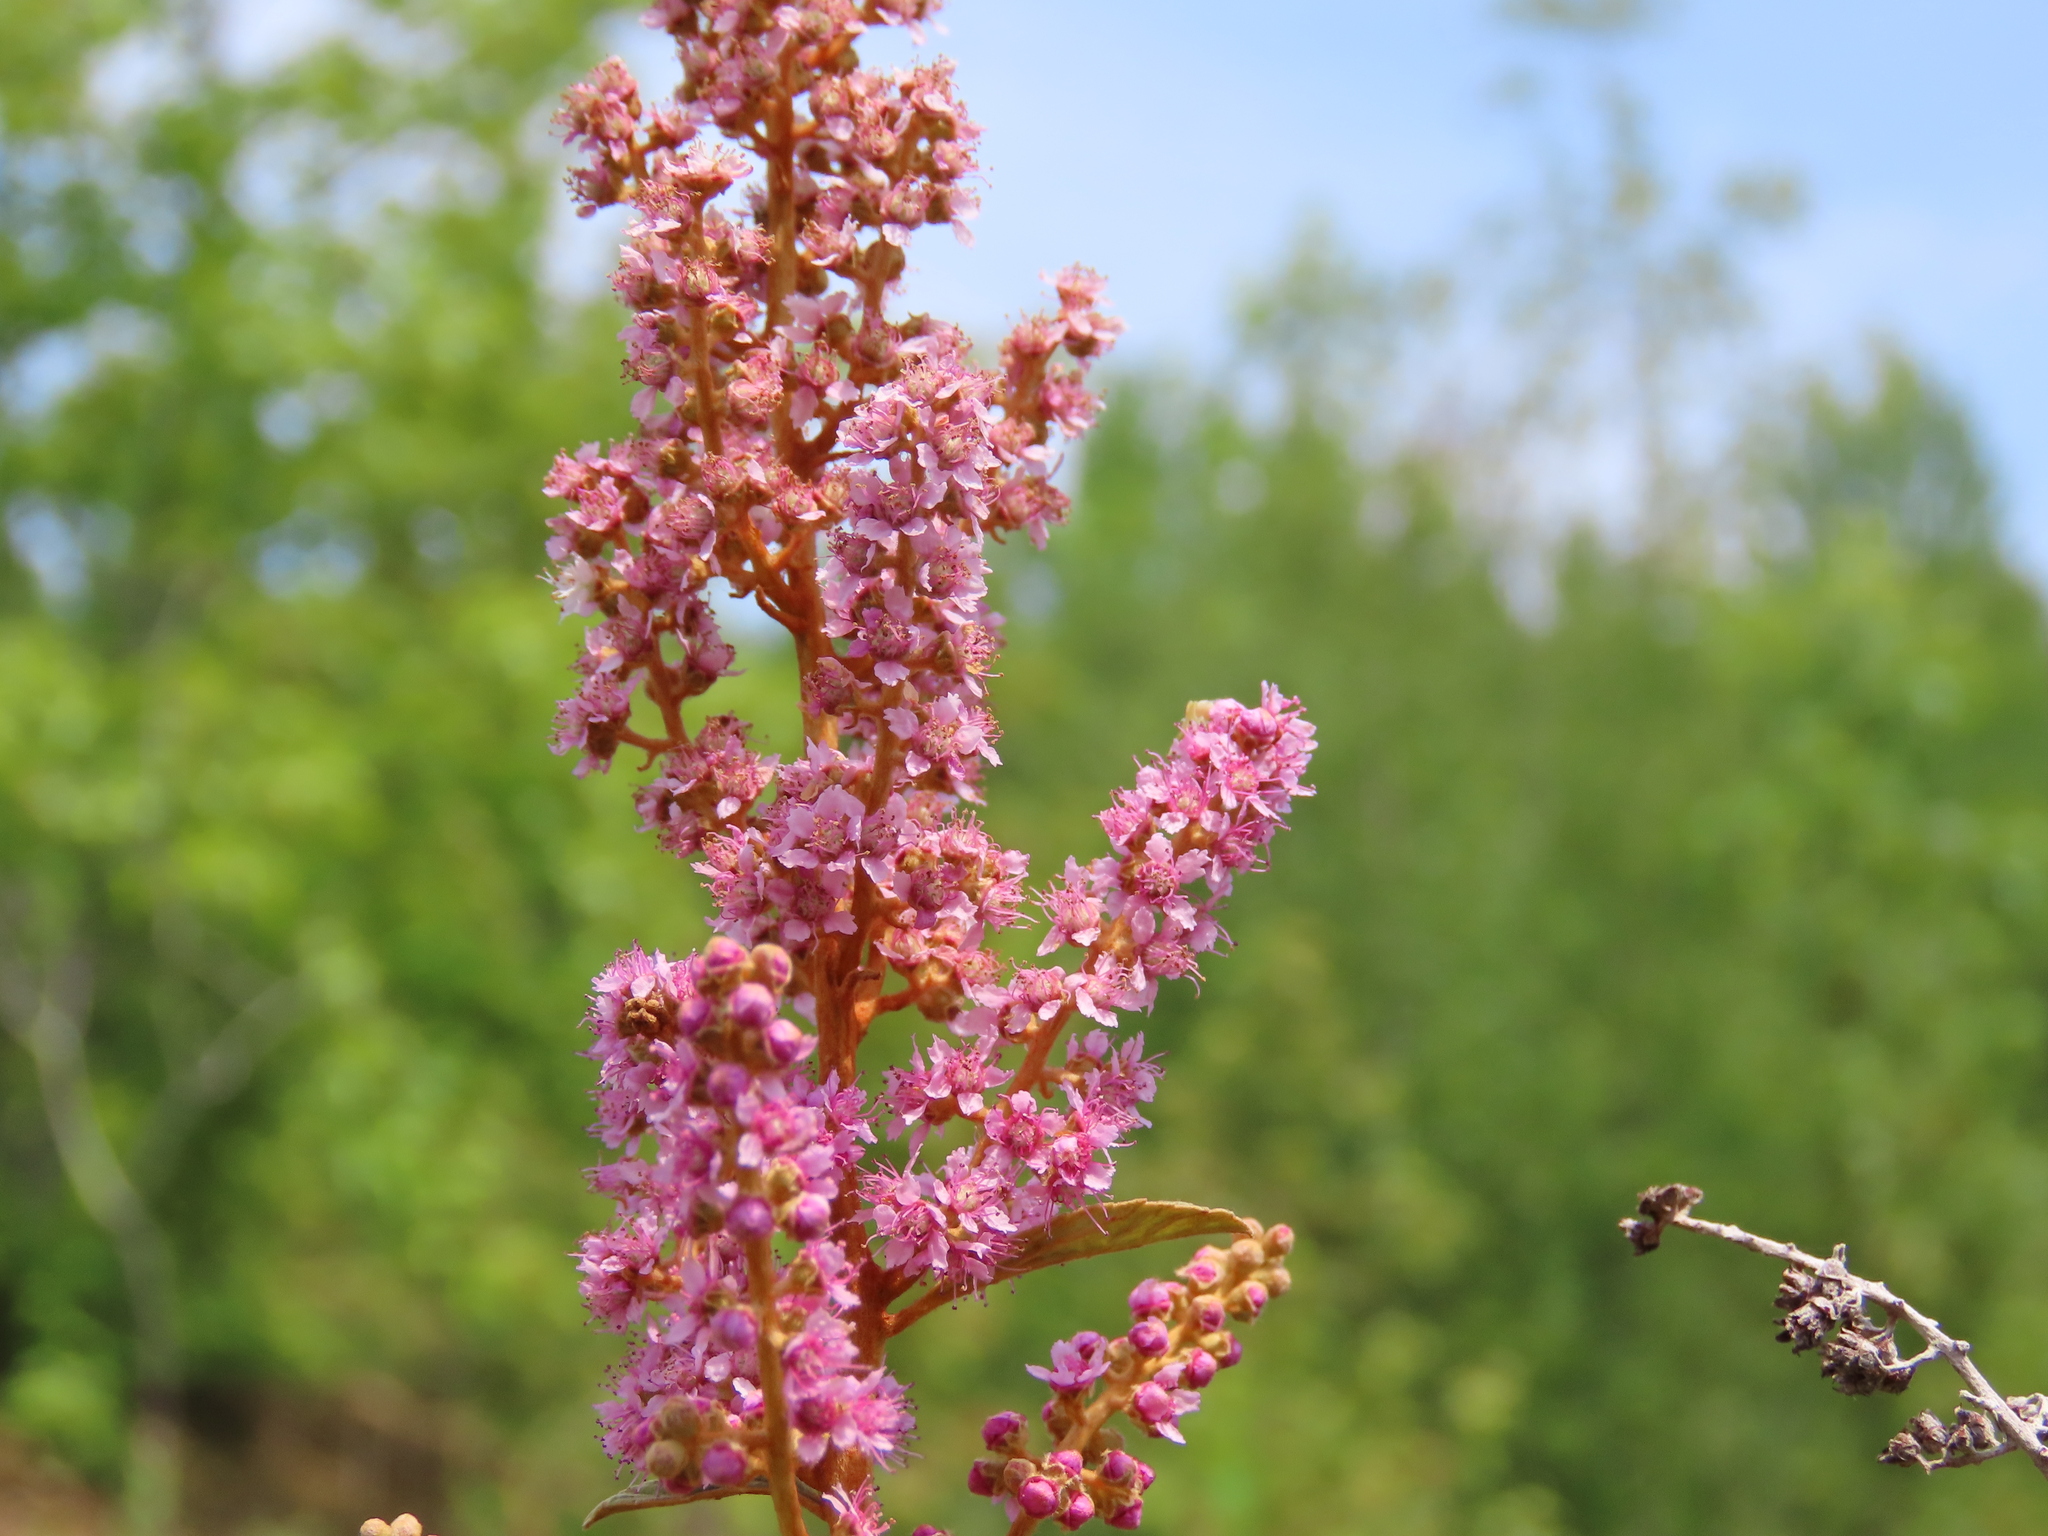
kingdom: Plantae
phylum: Tracheophyta
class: Magnoliopsida
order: Rosales
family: Rosaceae
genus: Spiraea
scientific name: Spiraea tomentosa
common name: Hardhack
